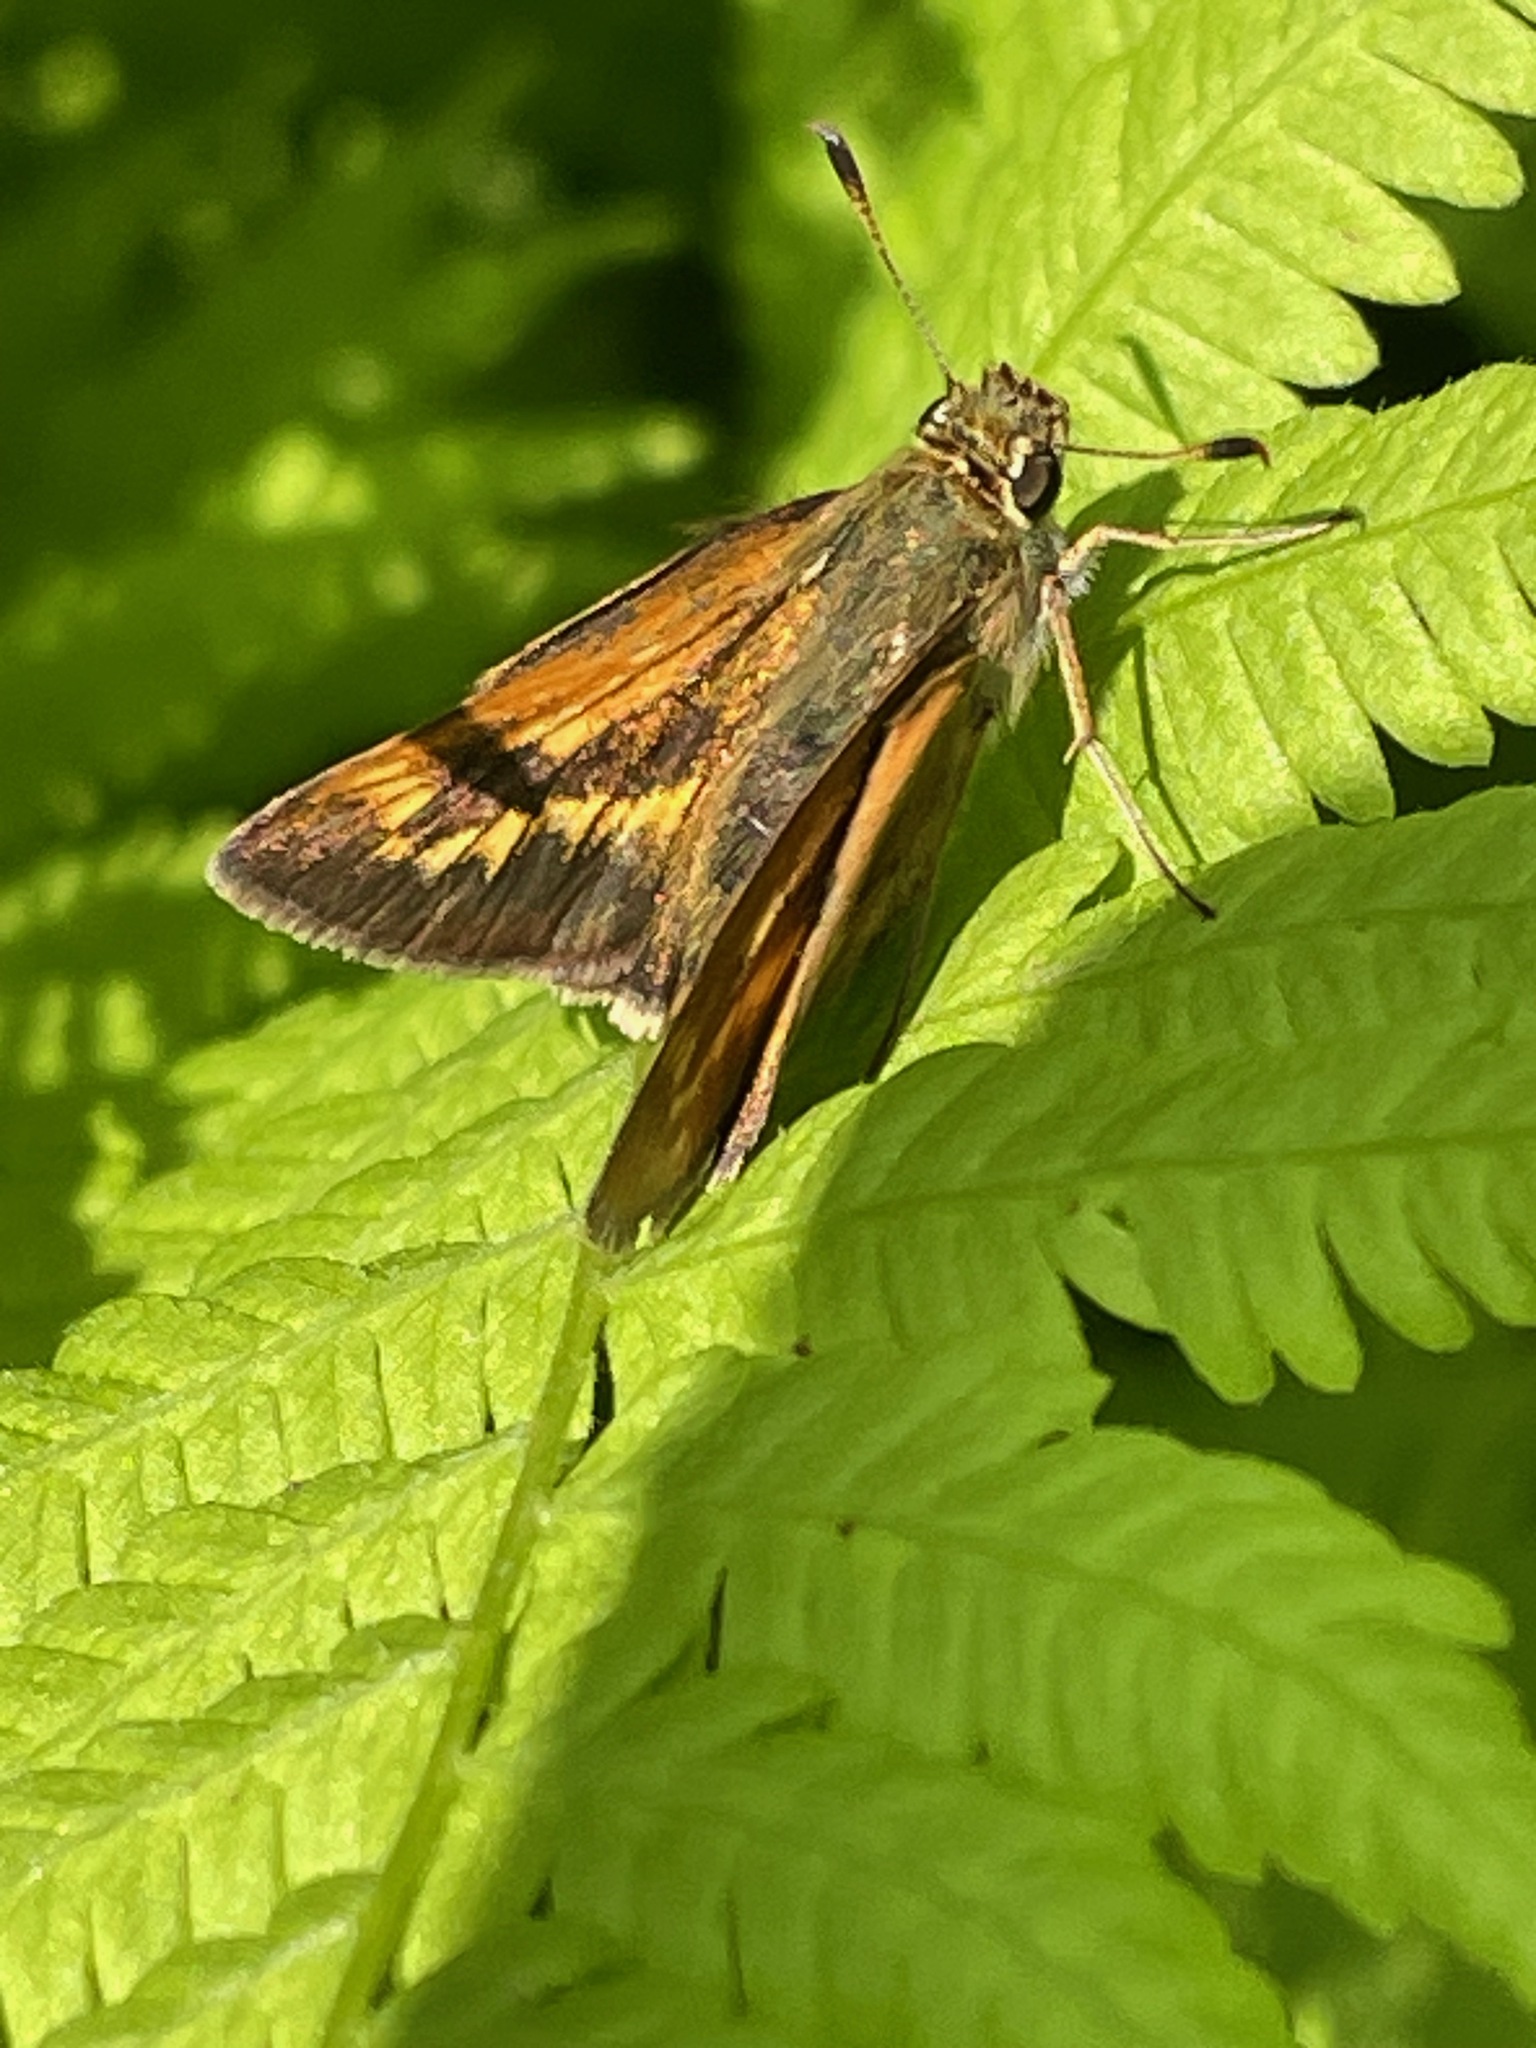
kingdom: Animalia
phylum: Arthropoda
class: Insecta
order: Lepidoptera
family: Hesperiidae
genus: Polites
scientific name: Polites mystic
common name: Long dash
